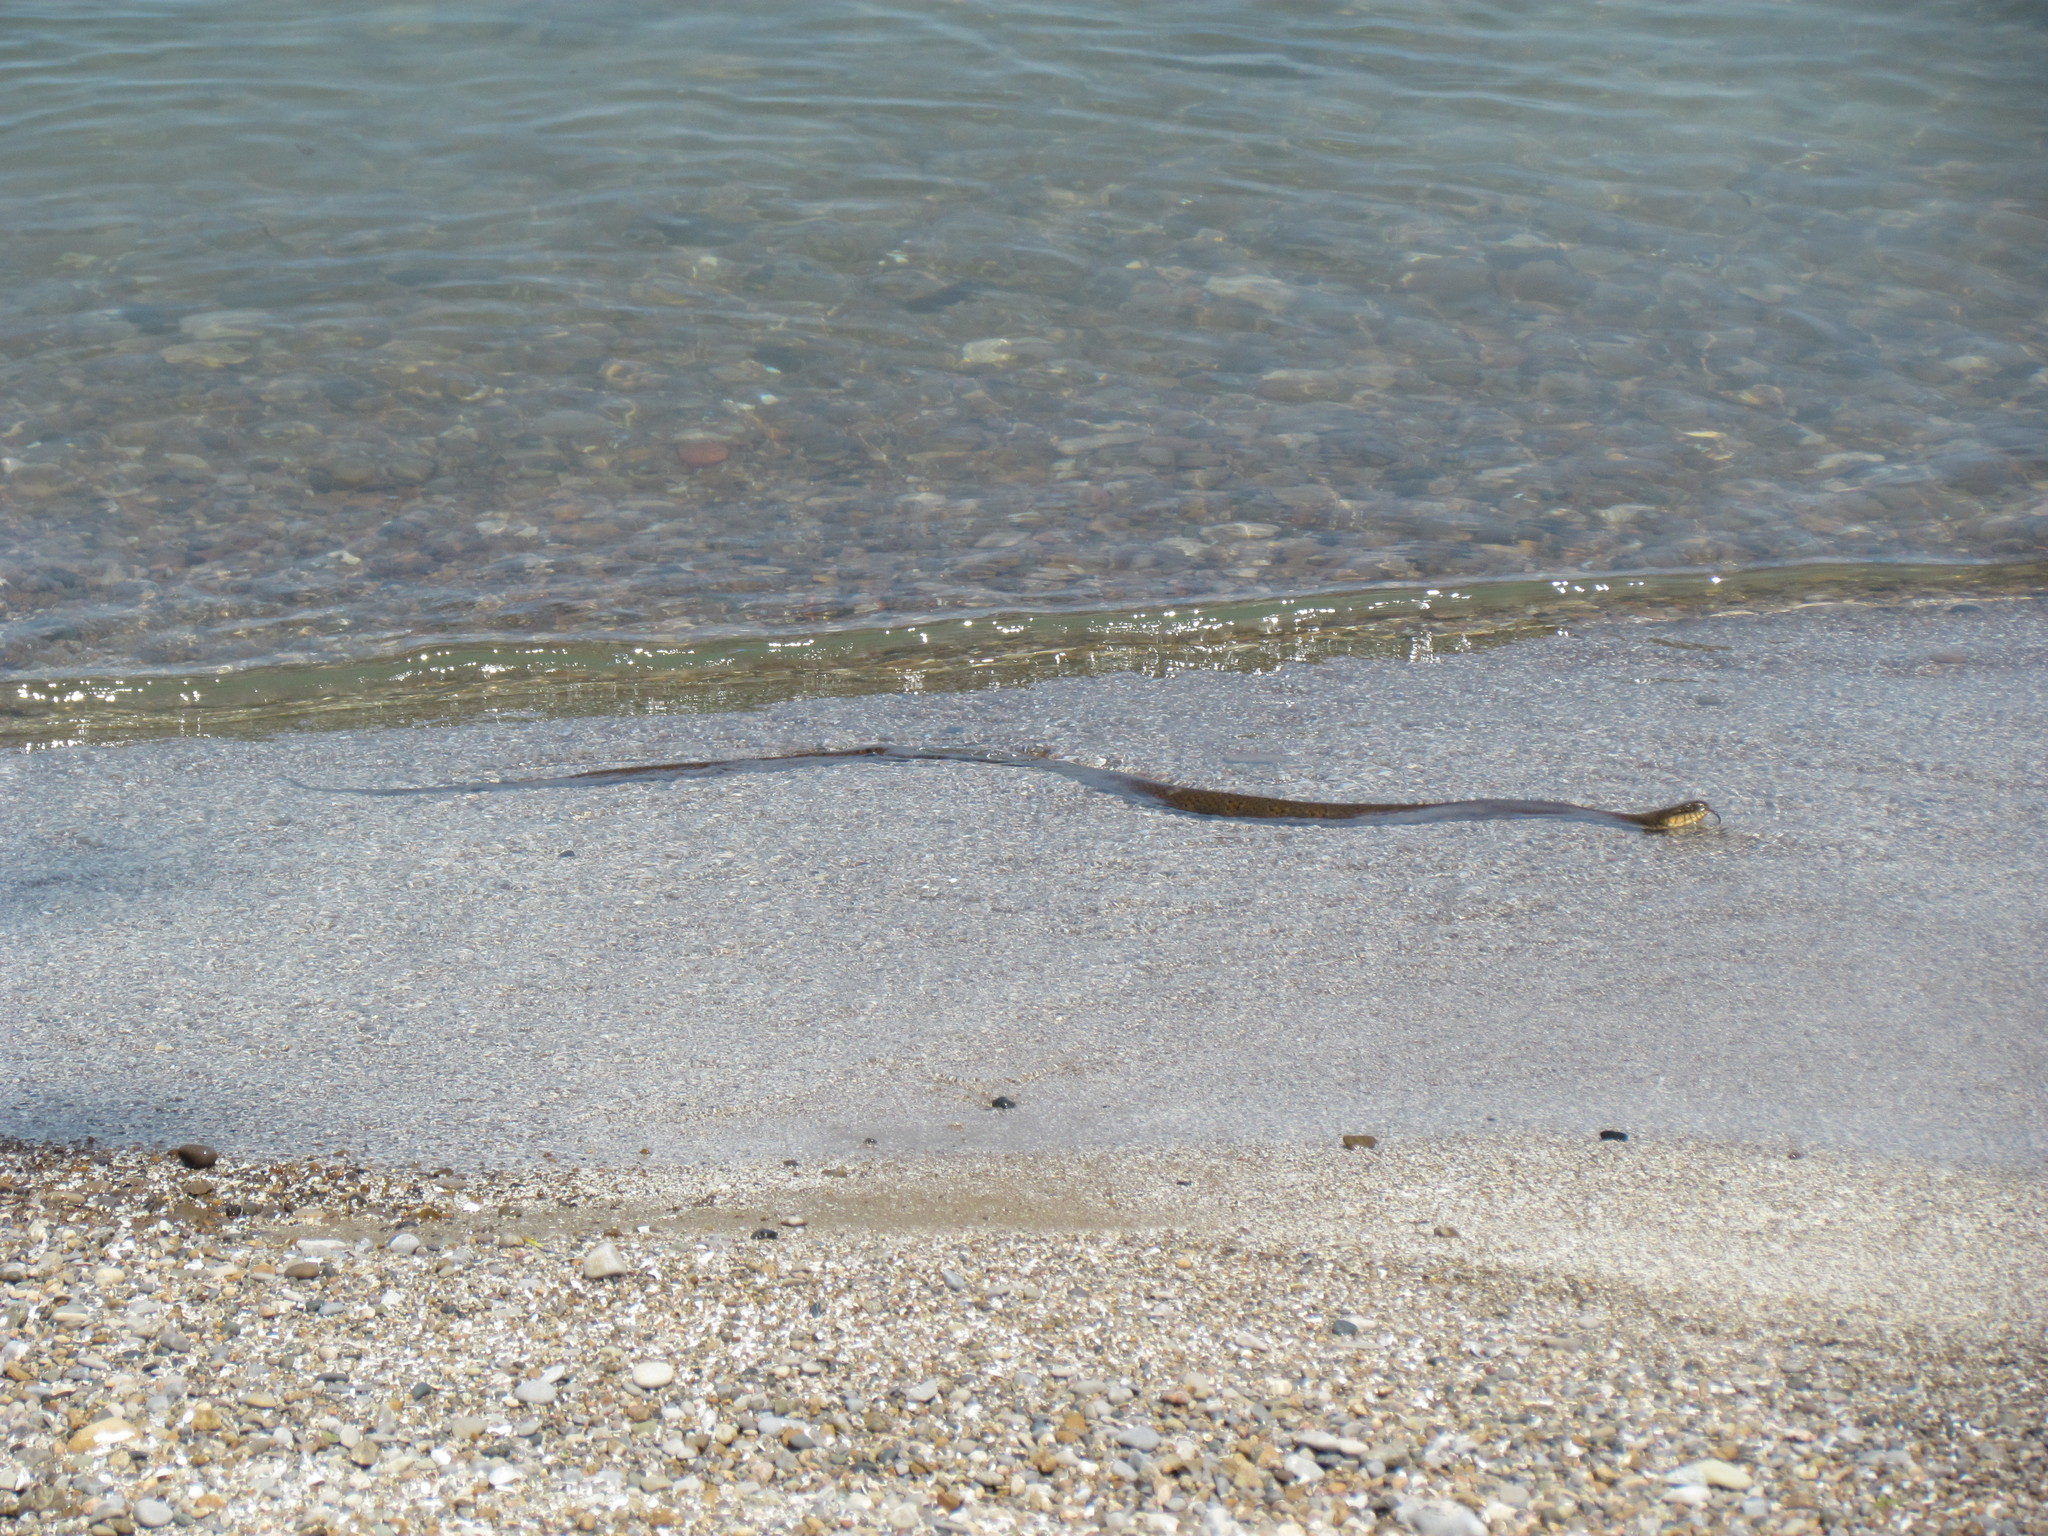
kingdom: Animalia
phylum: Chordata
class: Squamata
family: Colubridae
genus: Nerodia
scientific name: Nerodia sipedon
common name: Northern water snake
